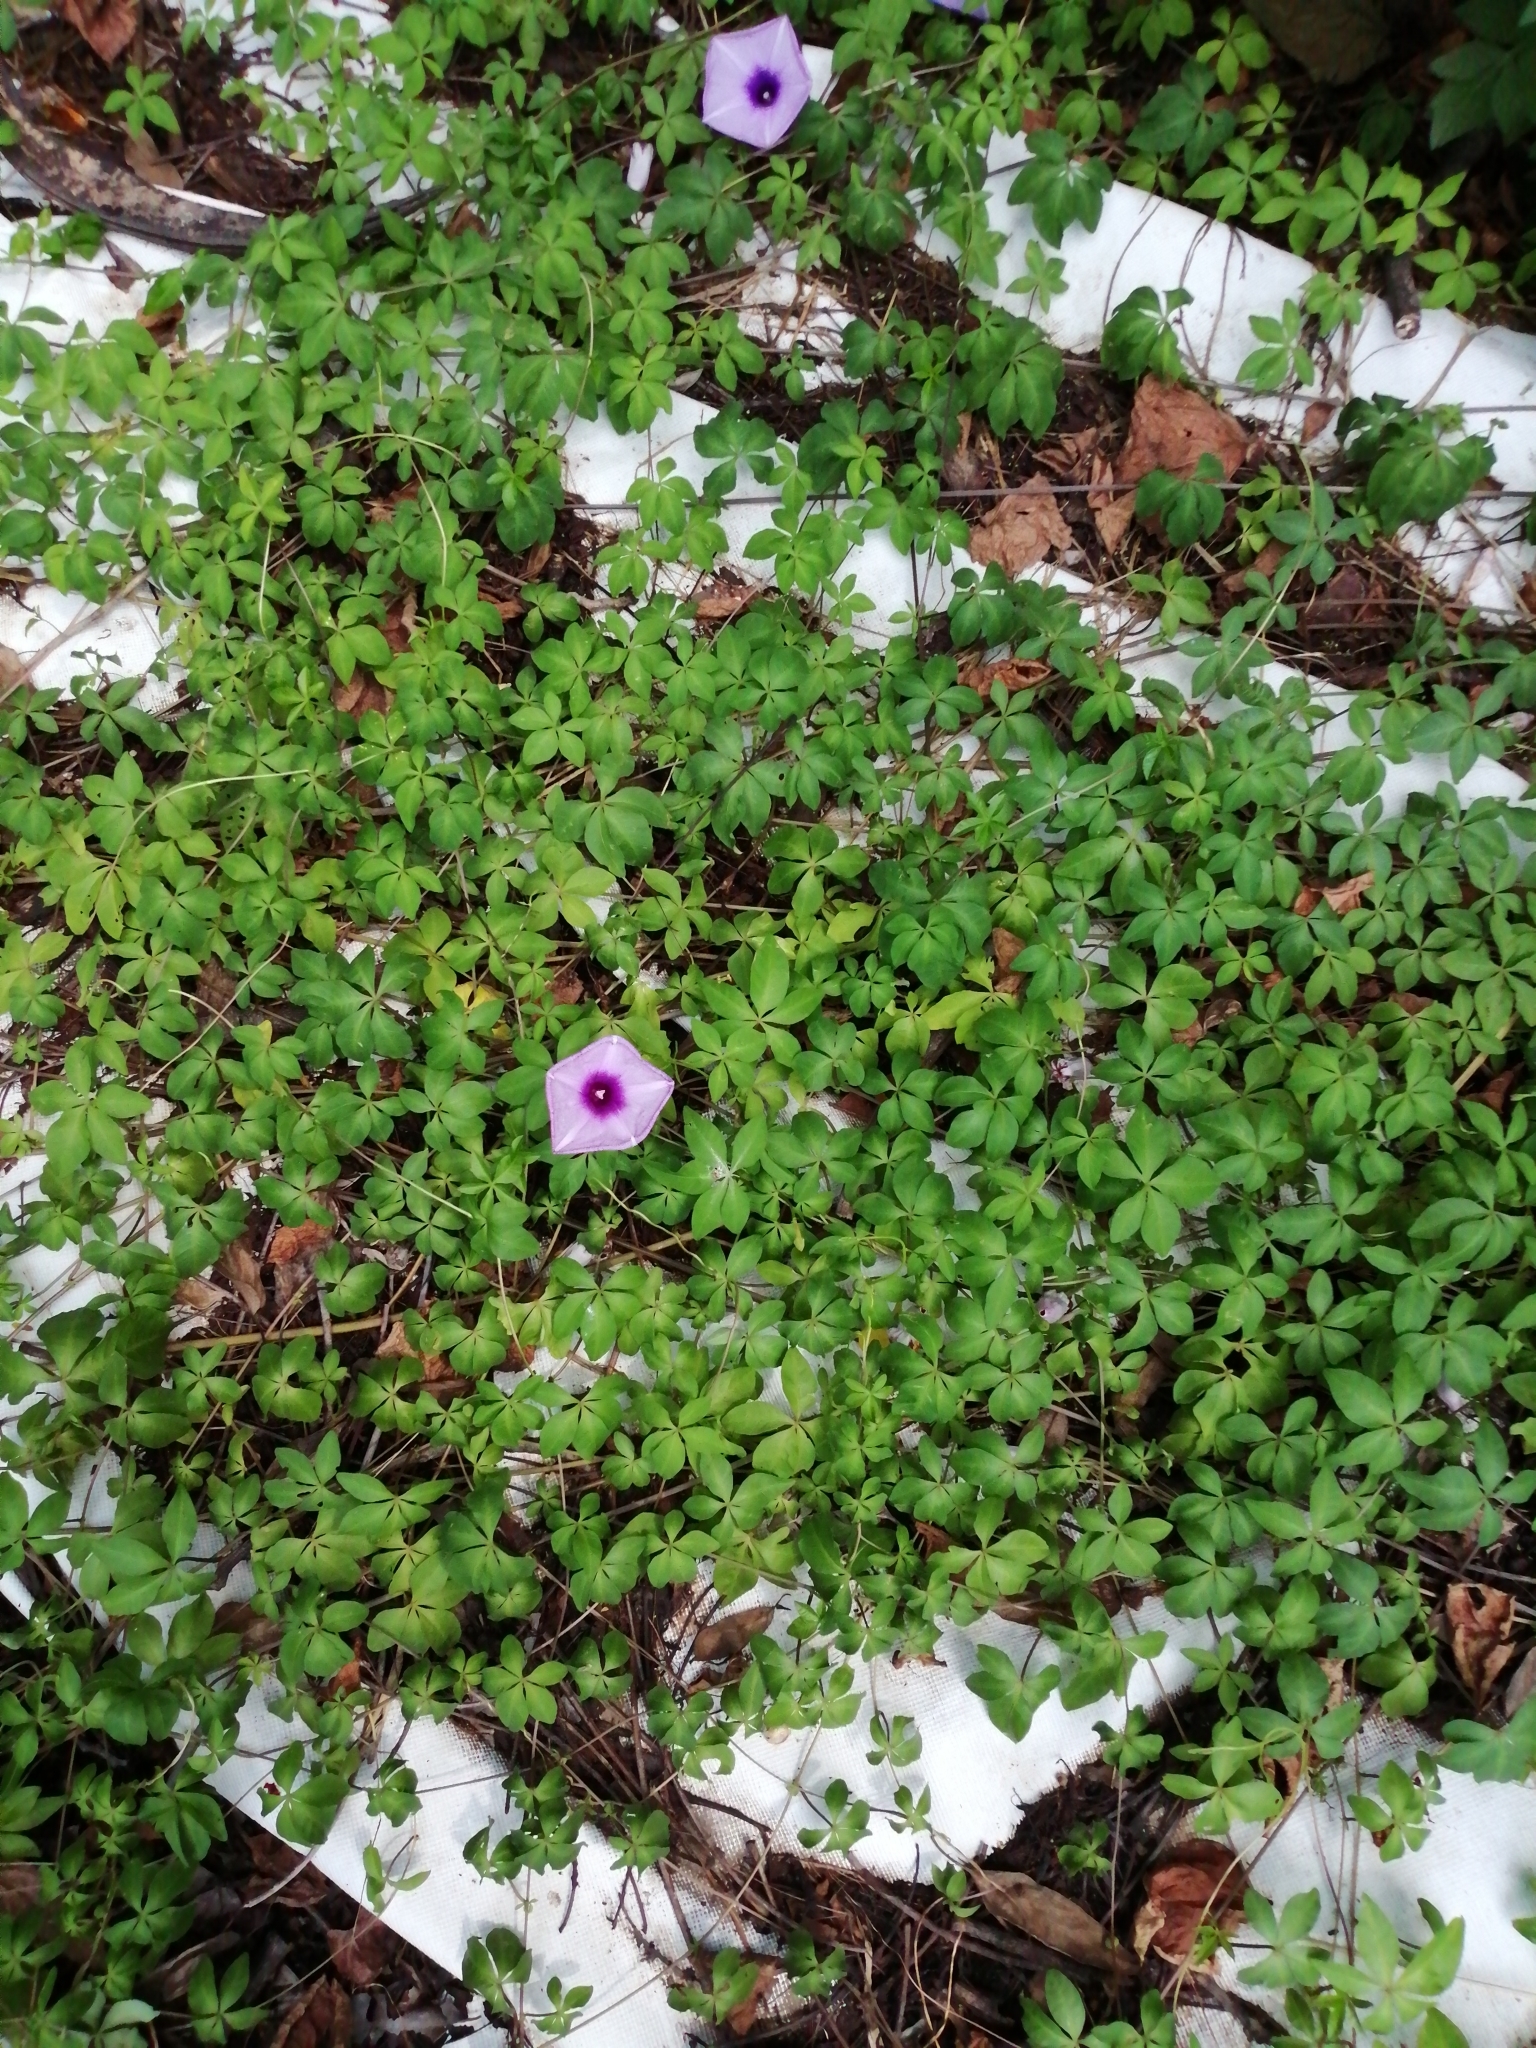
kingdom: Plantae
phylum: Tracheophyta
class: Magnoliopsida
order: Solanales
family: Convolvulaceae
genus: Ipomoea
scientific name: Ipomoea cairica
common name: Mile a minute vine
